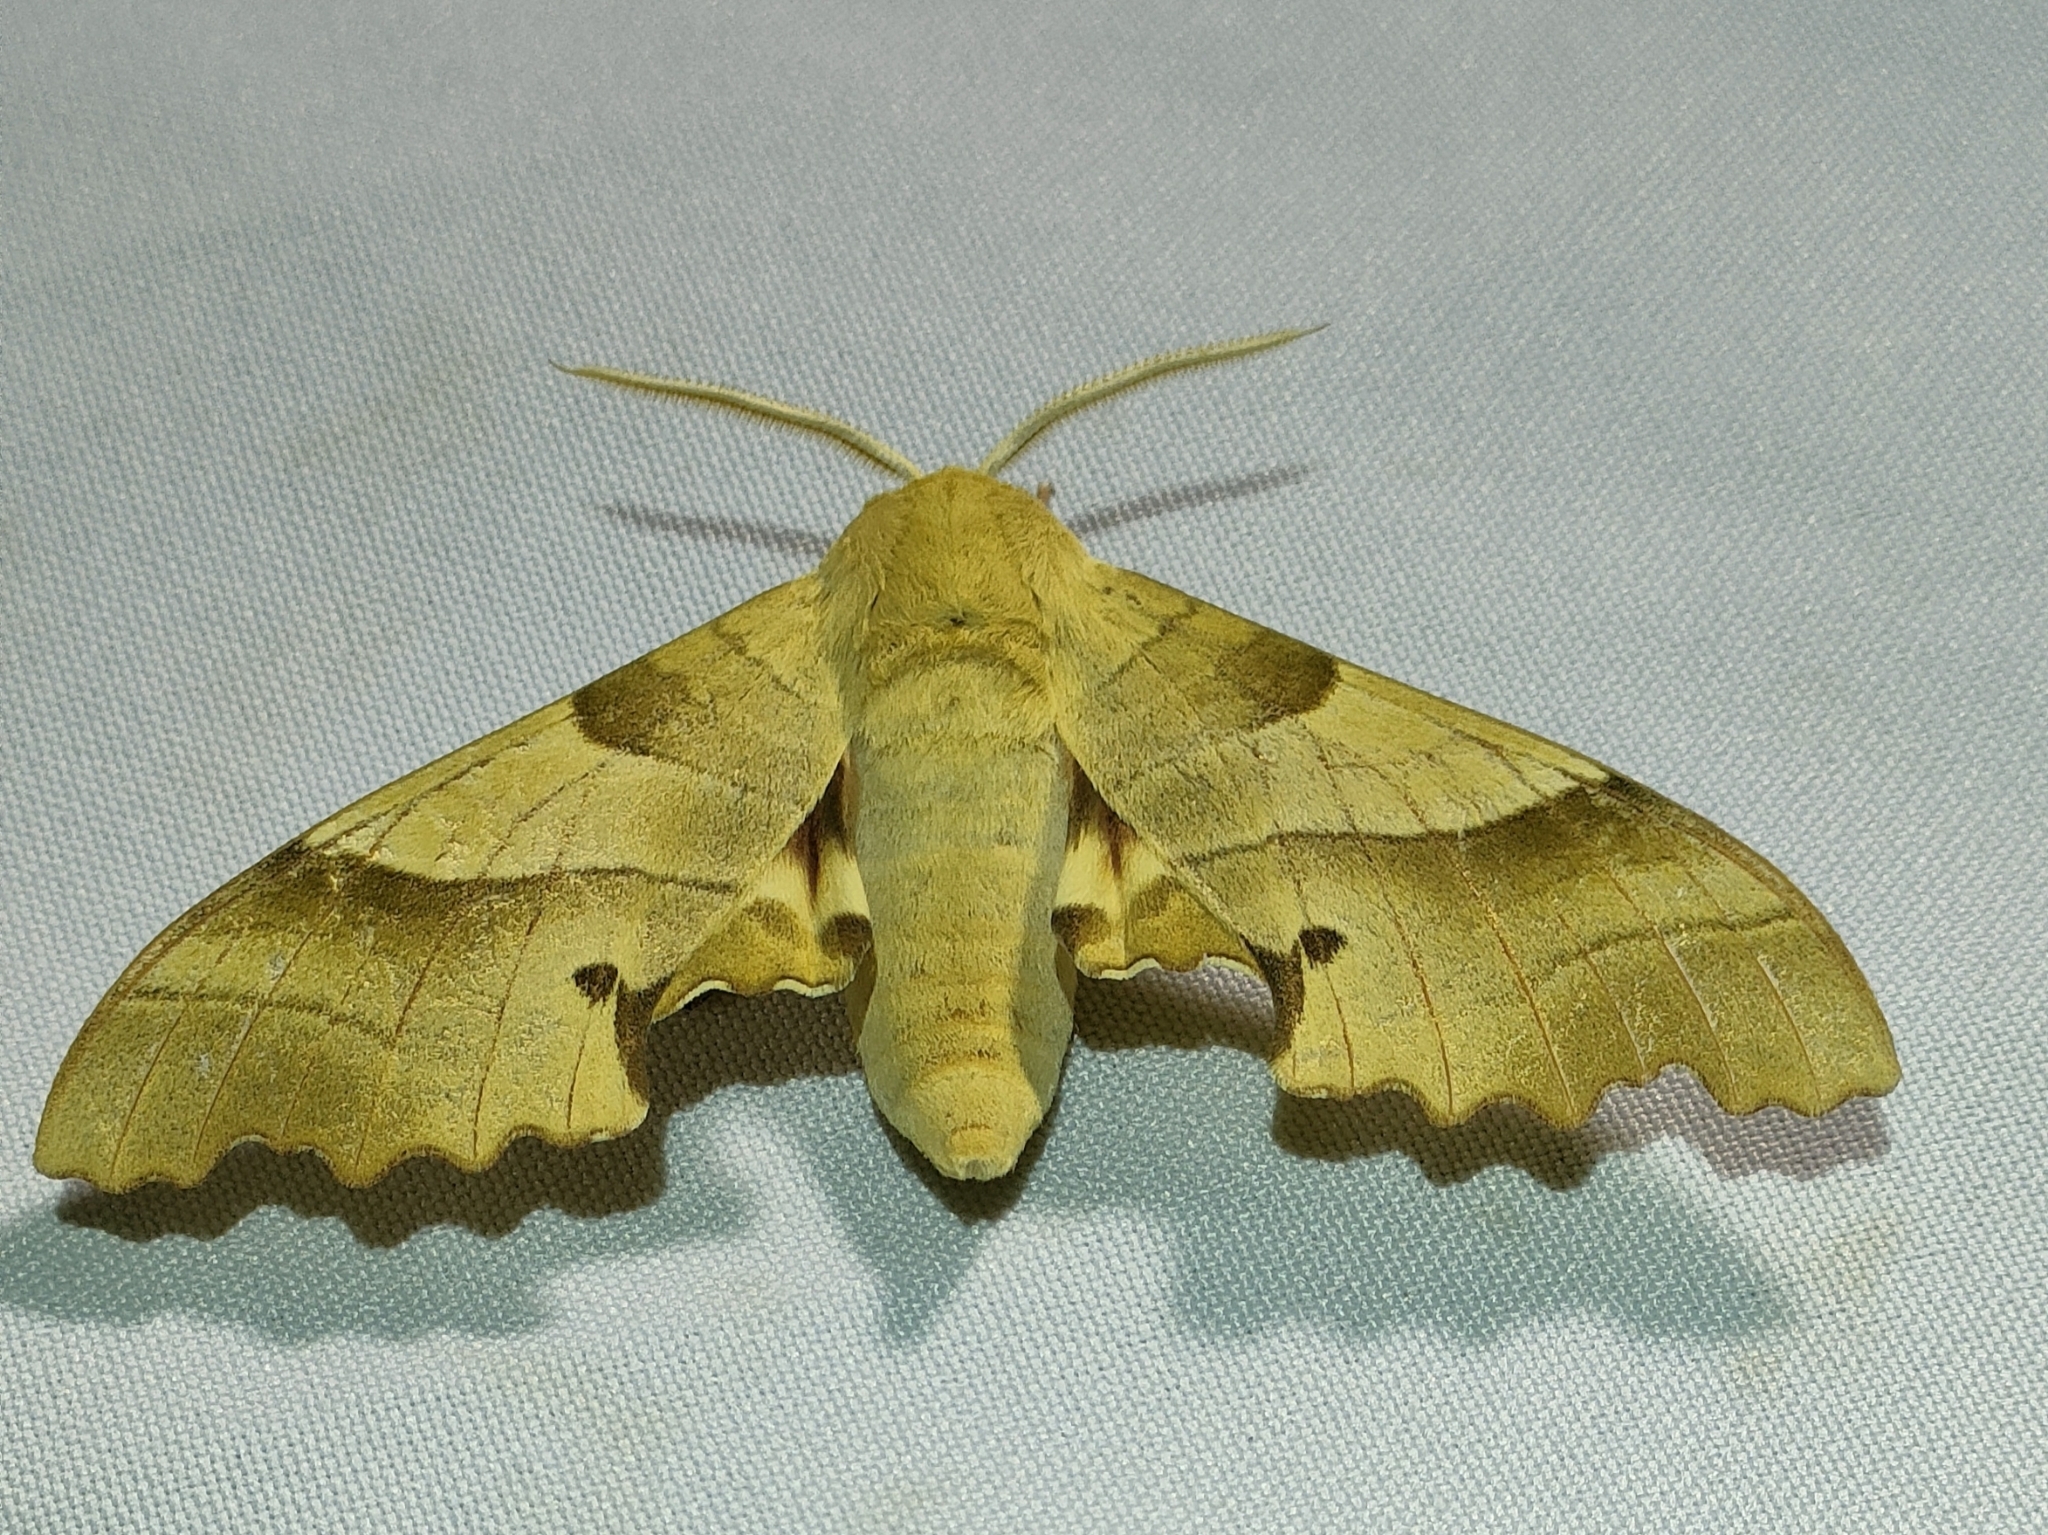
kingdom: Animalia
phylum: Arthropoda
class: Insecta
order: Lepidoptera
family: Sphingidae
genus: Marumba
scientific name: Marumba quercus
